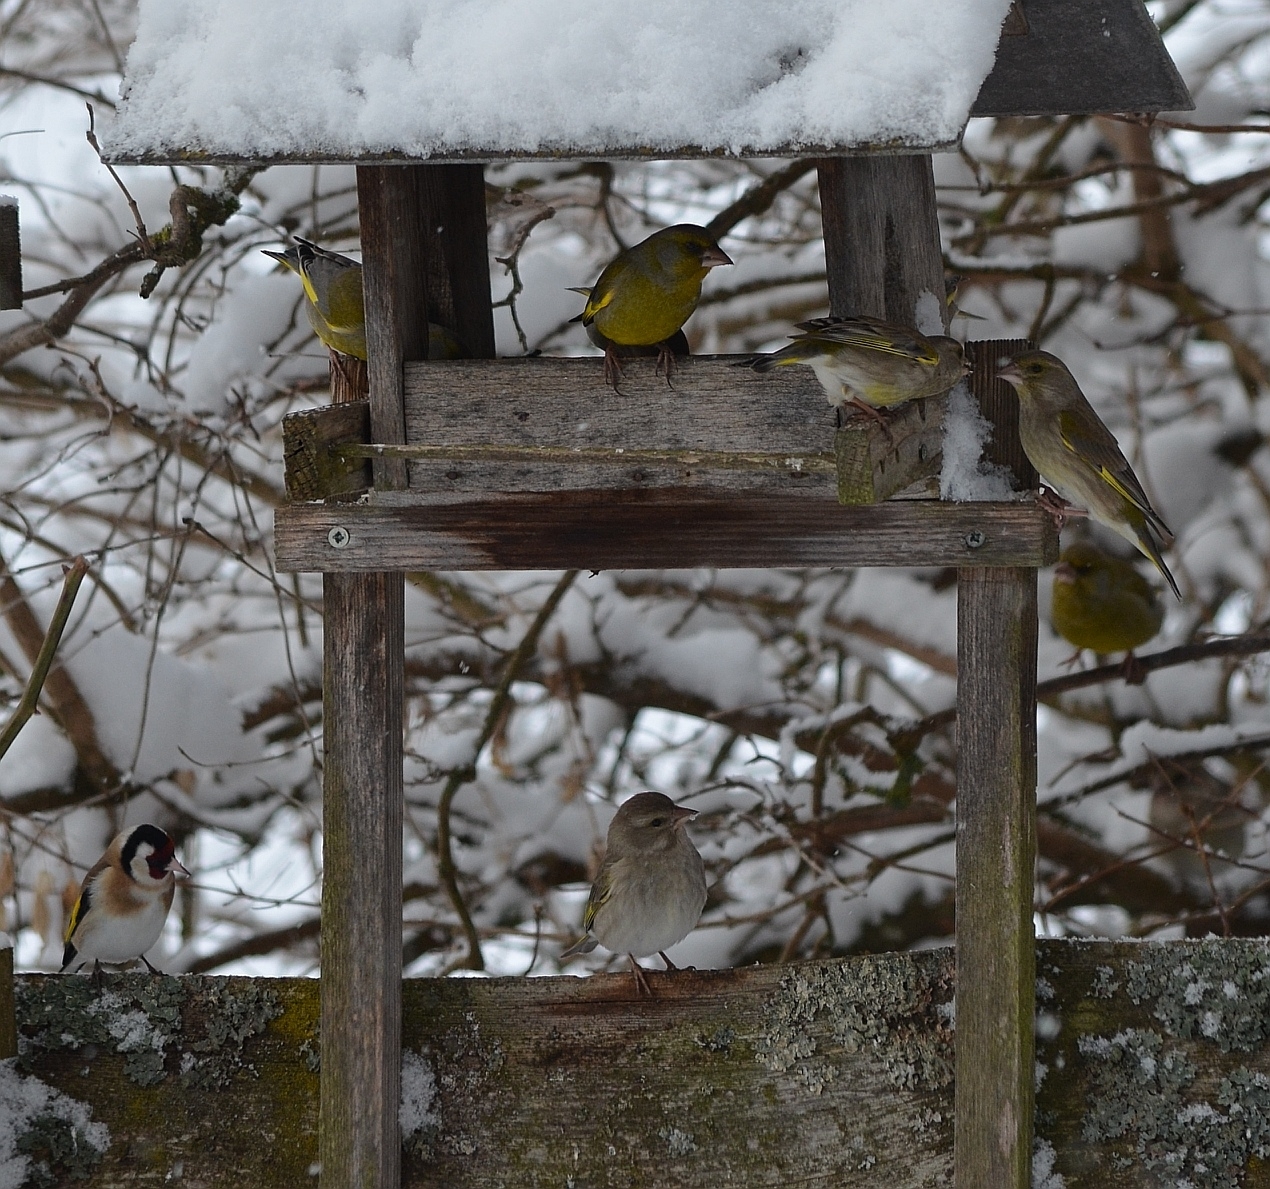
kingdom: Plantae
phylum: Tracheophyta
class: Liliopsida
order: Poales
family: Poaceae
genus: Chloris
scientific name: Chloris chloris
